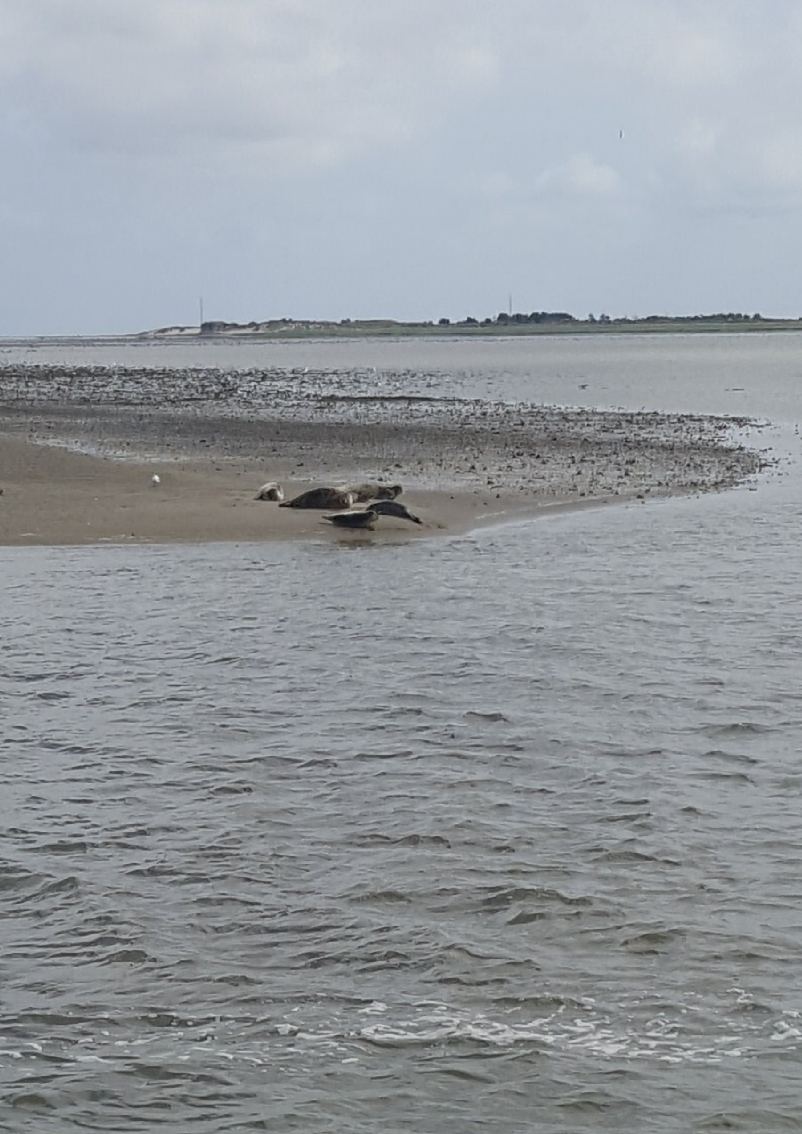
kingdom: Animalia
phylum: Chordata
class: Mammalia
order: Carnivora
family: Phocidae
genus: Phoca
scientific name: Phoca vitulina
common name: Harbor seal
